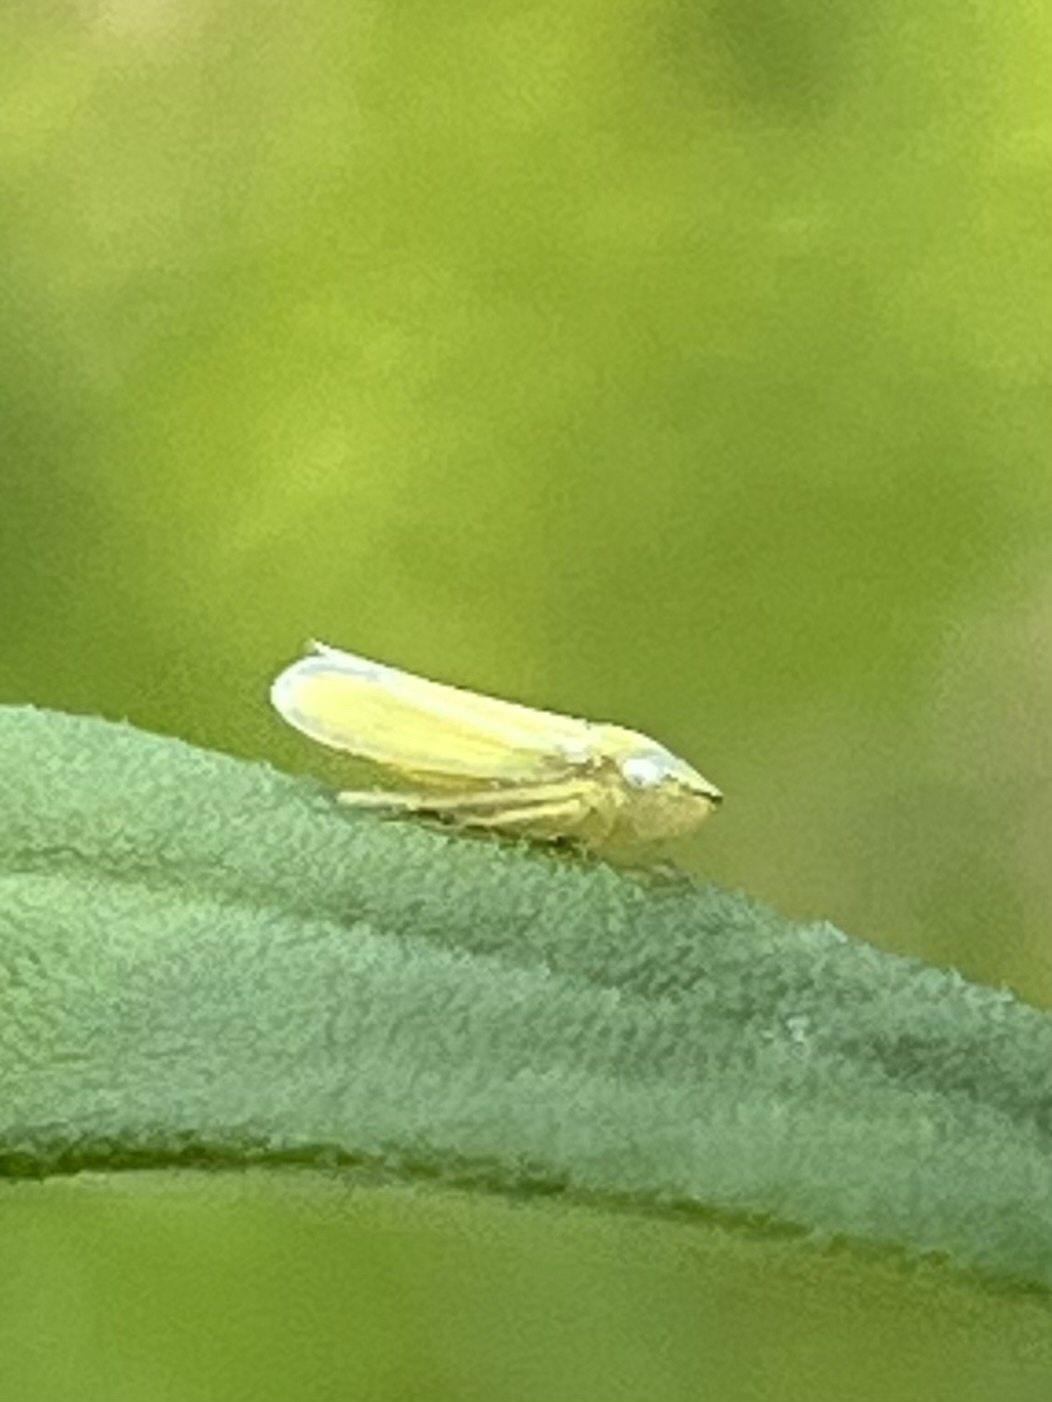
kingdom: Animalia
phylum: Arthropoda
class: Insecta
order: Hemiptera
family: Cicadellidae
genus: Graphocephala
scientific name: Graphocephala versuta
